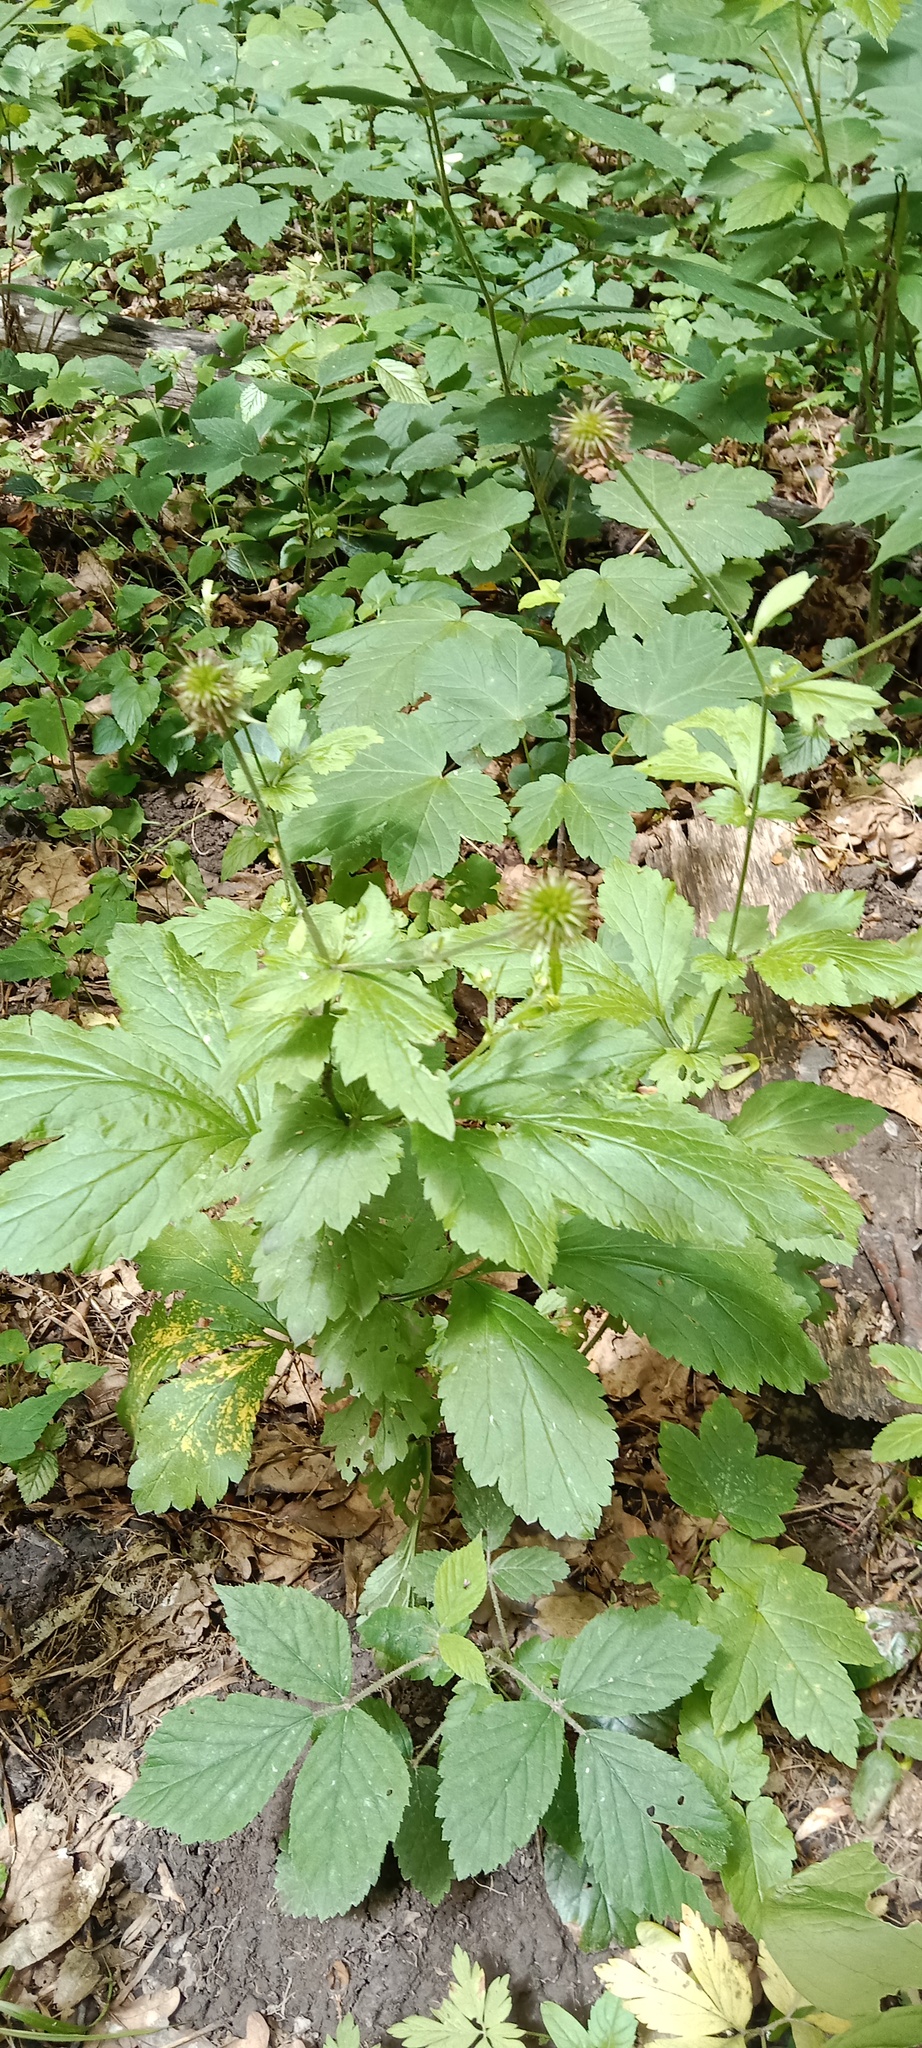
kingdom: Plantae
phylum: Tracheophyta
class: Magnoliopsida
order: Rosales
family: Rosaceae
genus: Geum
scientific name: Geum urbanum
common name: Wood avens
